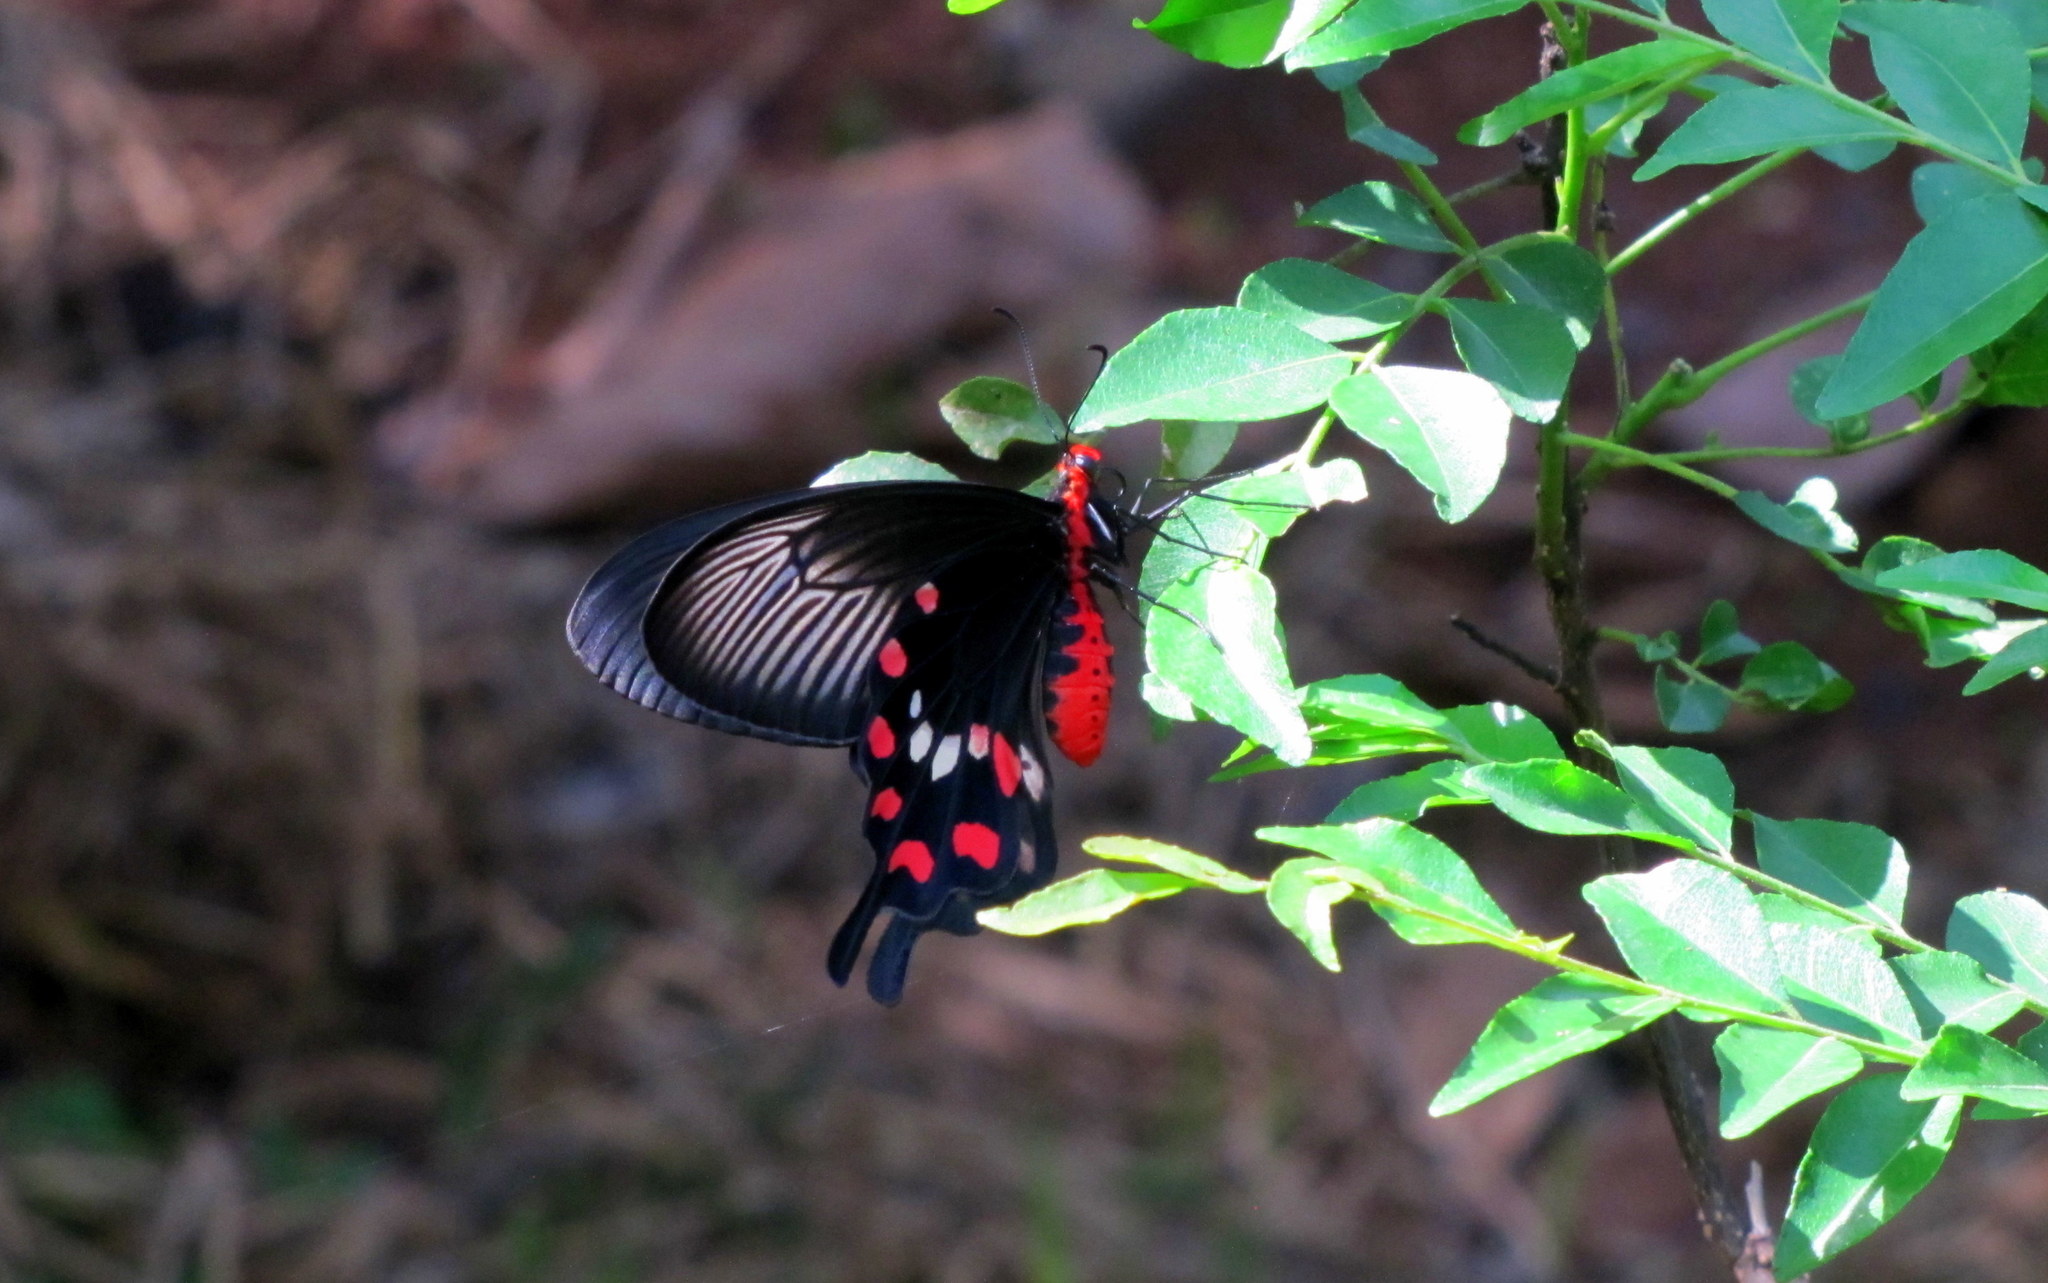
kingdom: Animalia
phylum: Arthropoda
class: Insecta
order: Lepidoptera
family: Papilionidae
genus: Pachliopta
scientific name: Pachliopta aristolochiae
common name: Common rose
